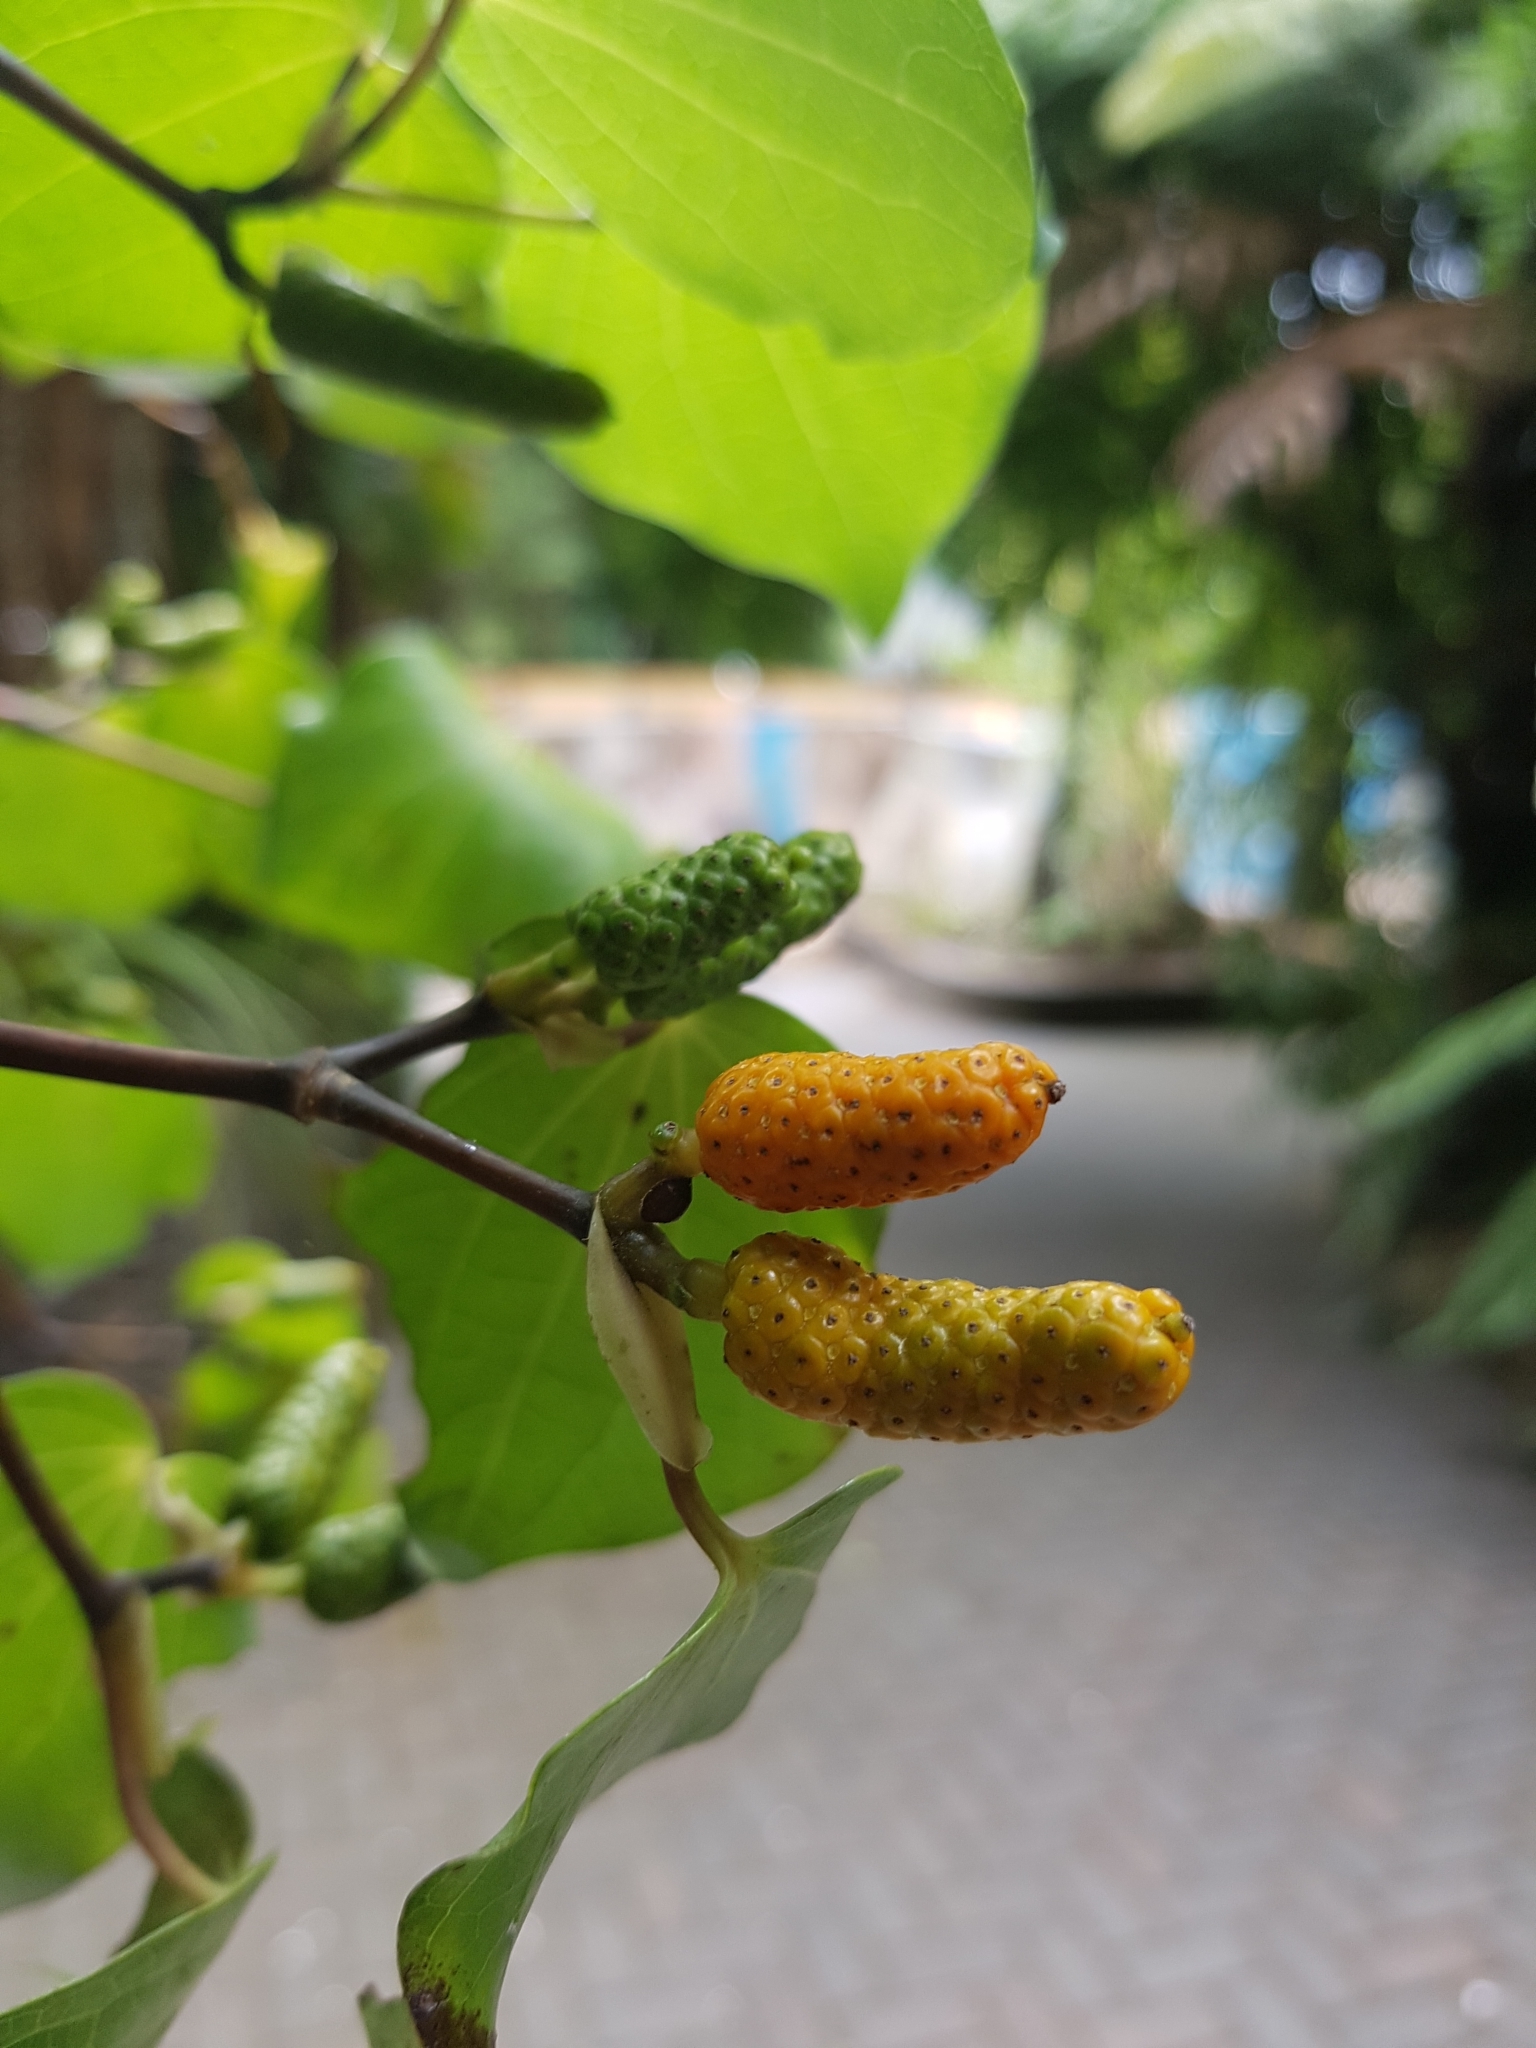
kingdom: Plantae
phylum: Tracheophyta
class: Magnoliopsida
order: Piperales
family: Piperaceae
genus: Macropiper
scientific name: Macropiper excelsum
